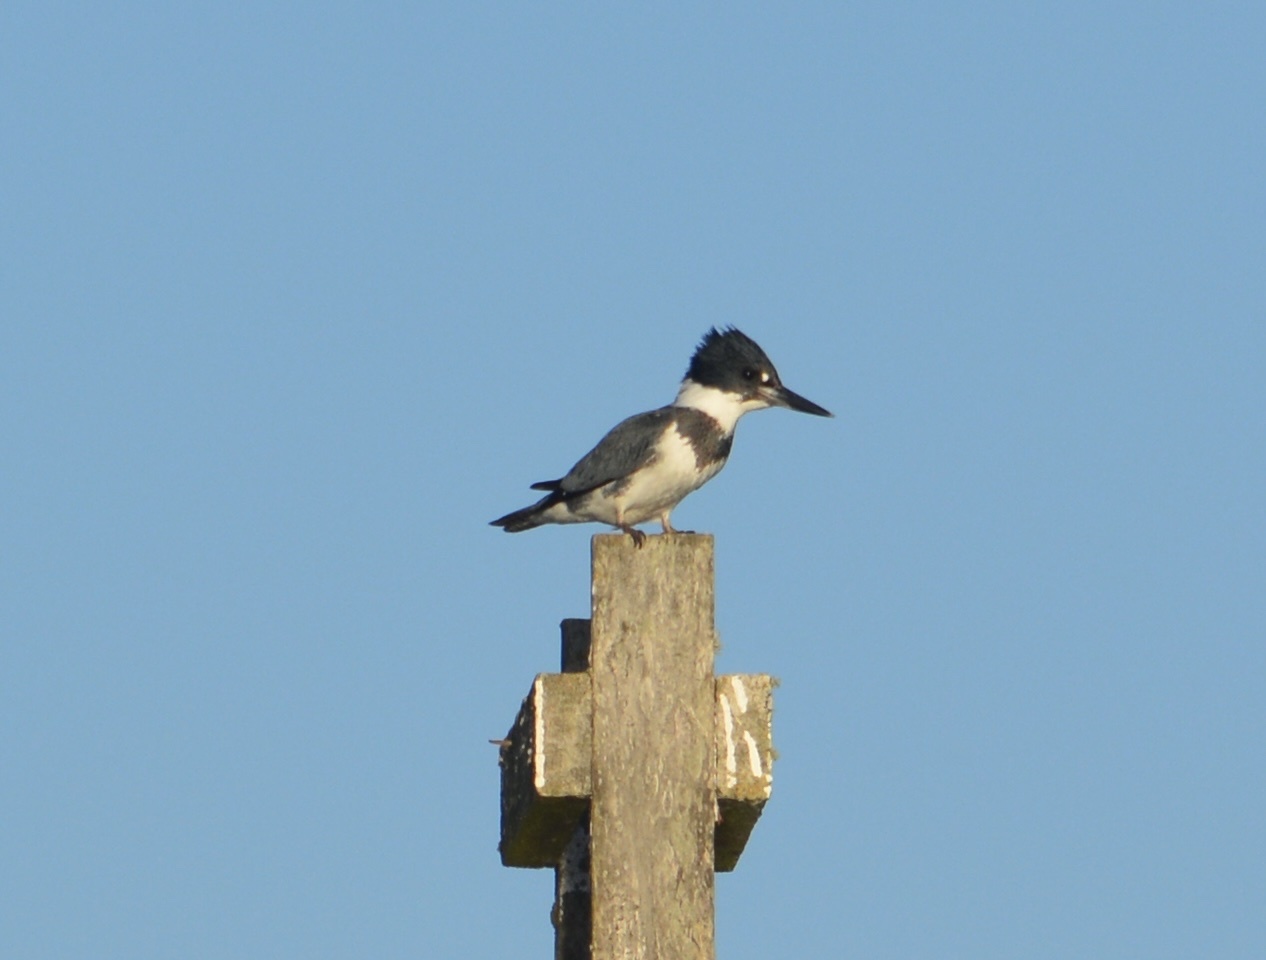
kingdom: Animalia
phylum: Chordata
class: Aves
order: Coraciiformes
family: Alcedinidae
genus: Megaceryle
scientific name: Megaceryle alcyon
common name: Belted kingfisher
